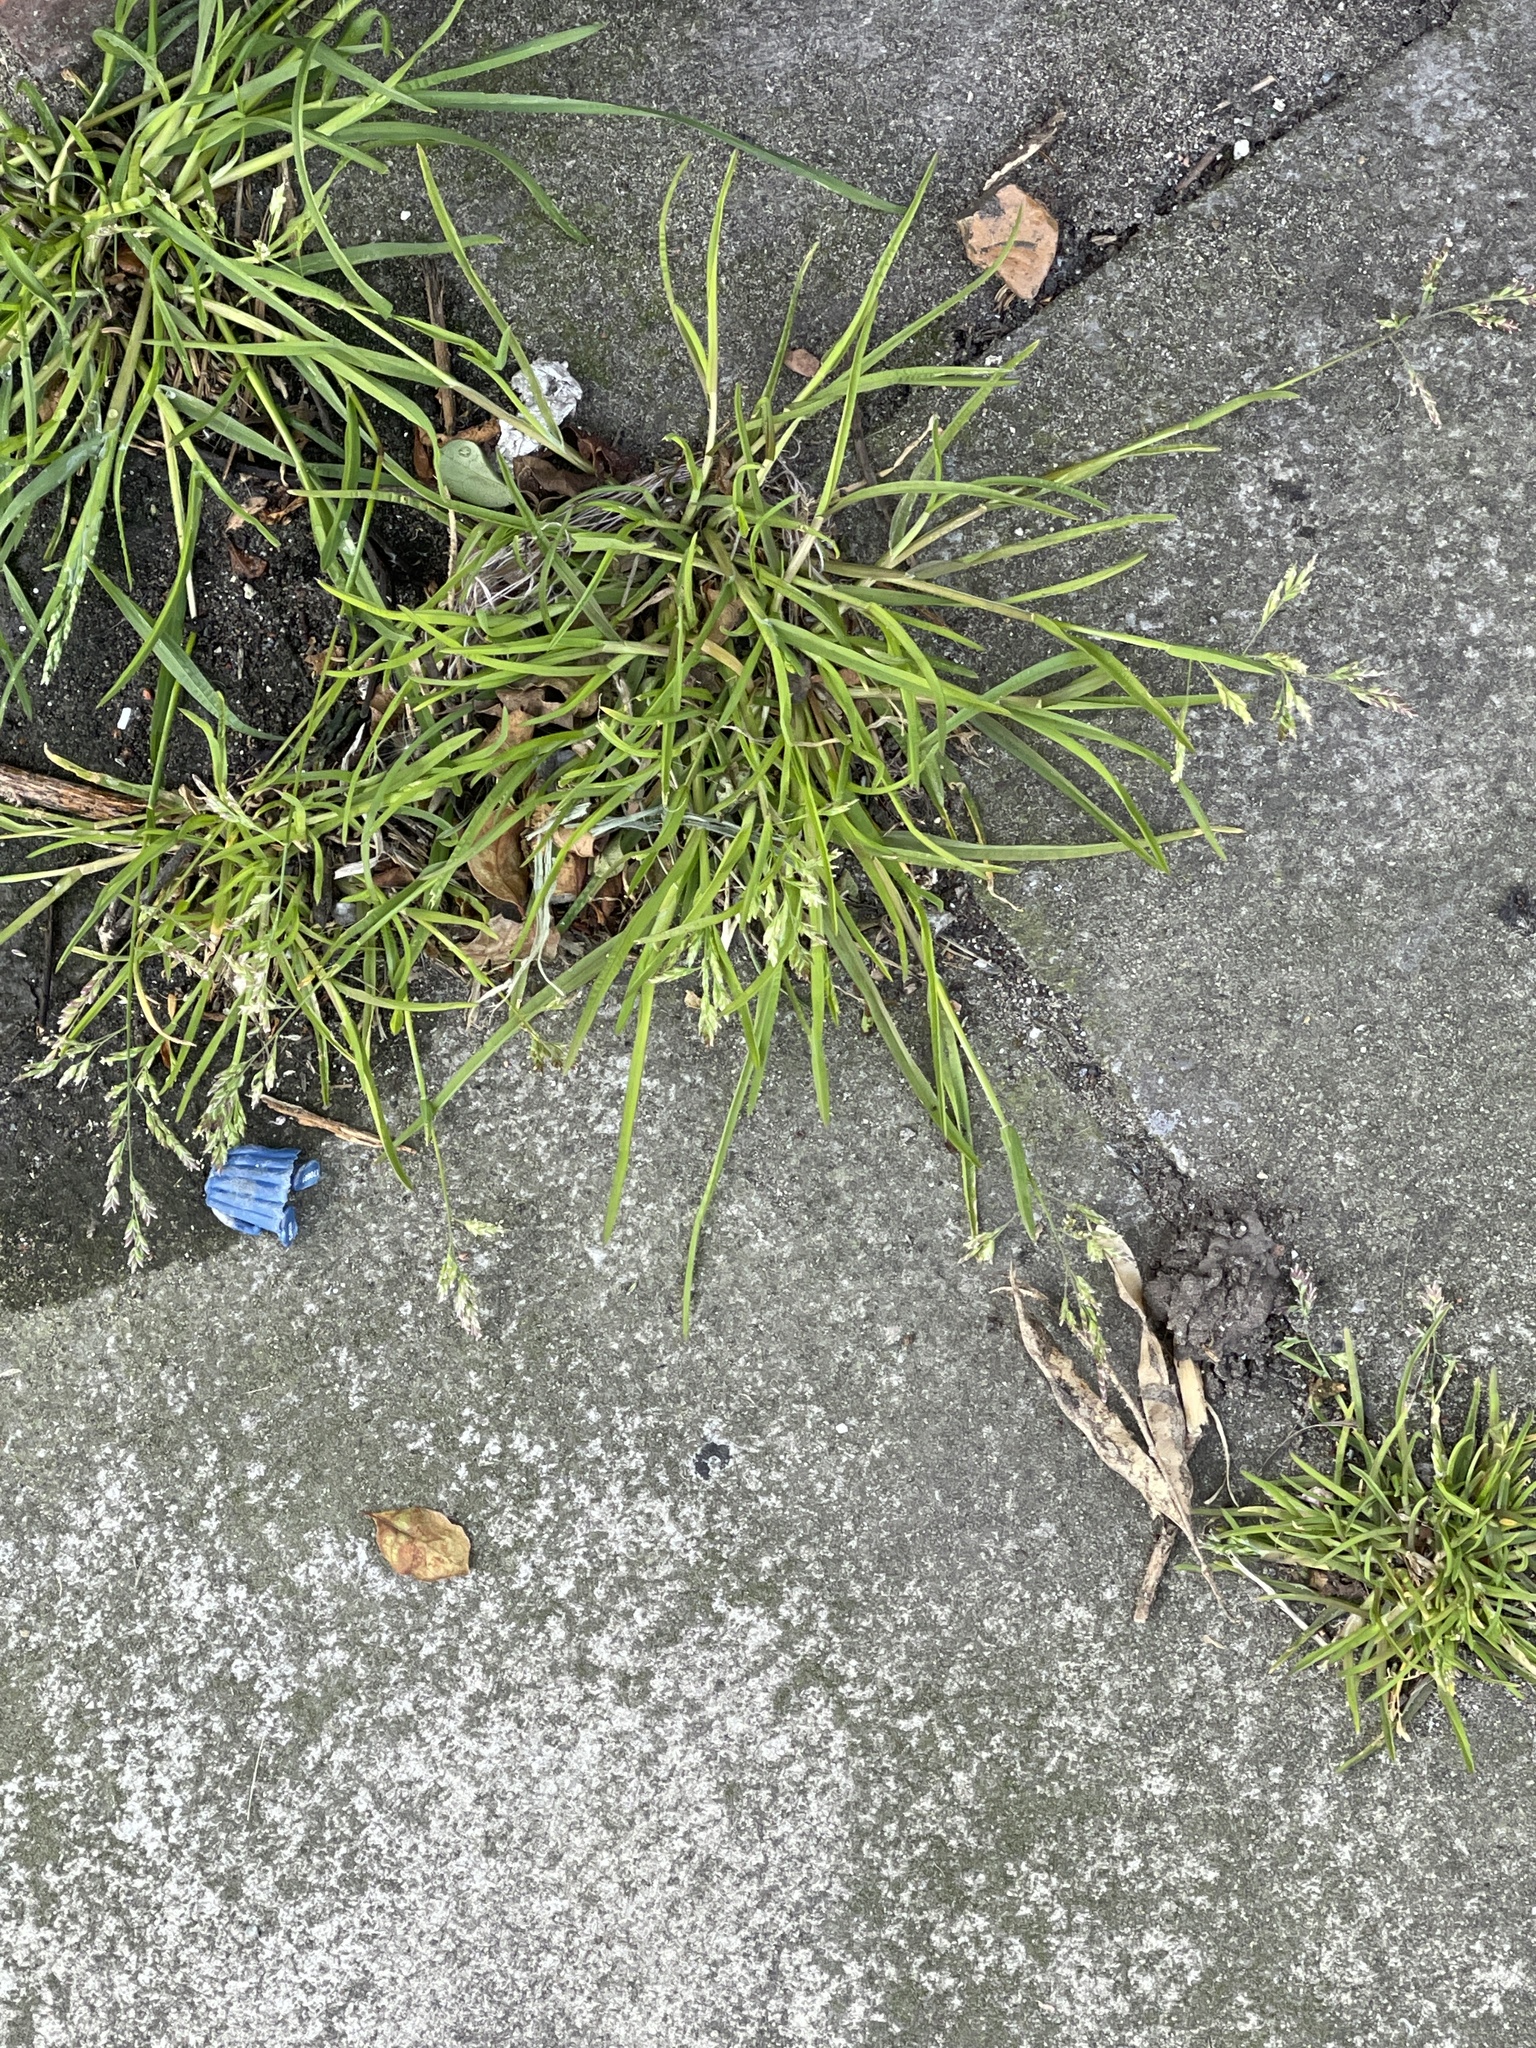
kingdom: Plantae
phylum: Tracheophyta
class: Liliopsida
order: Poales
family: Poaceae
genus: Poa
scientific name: Poa annua
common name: Annual bluegrass
